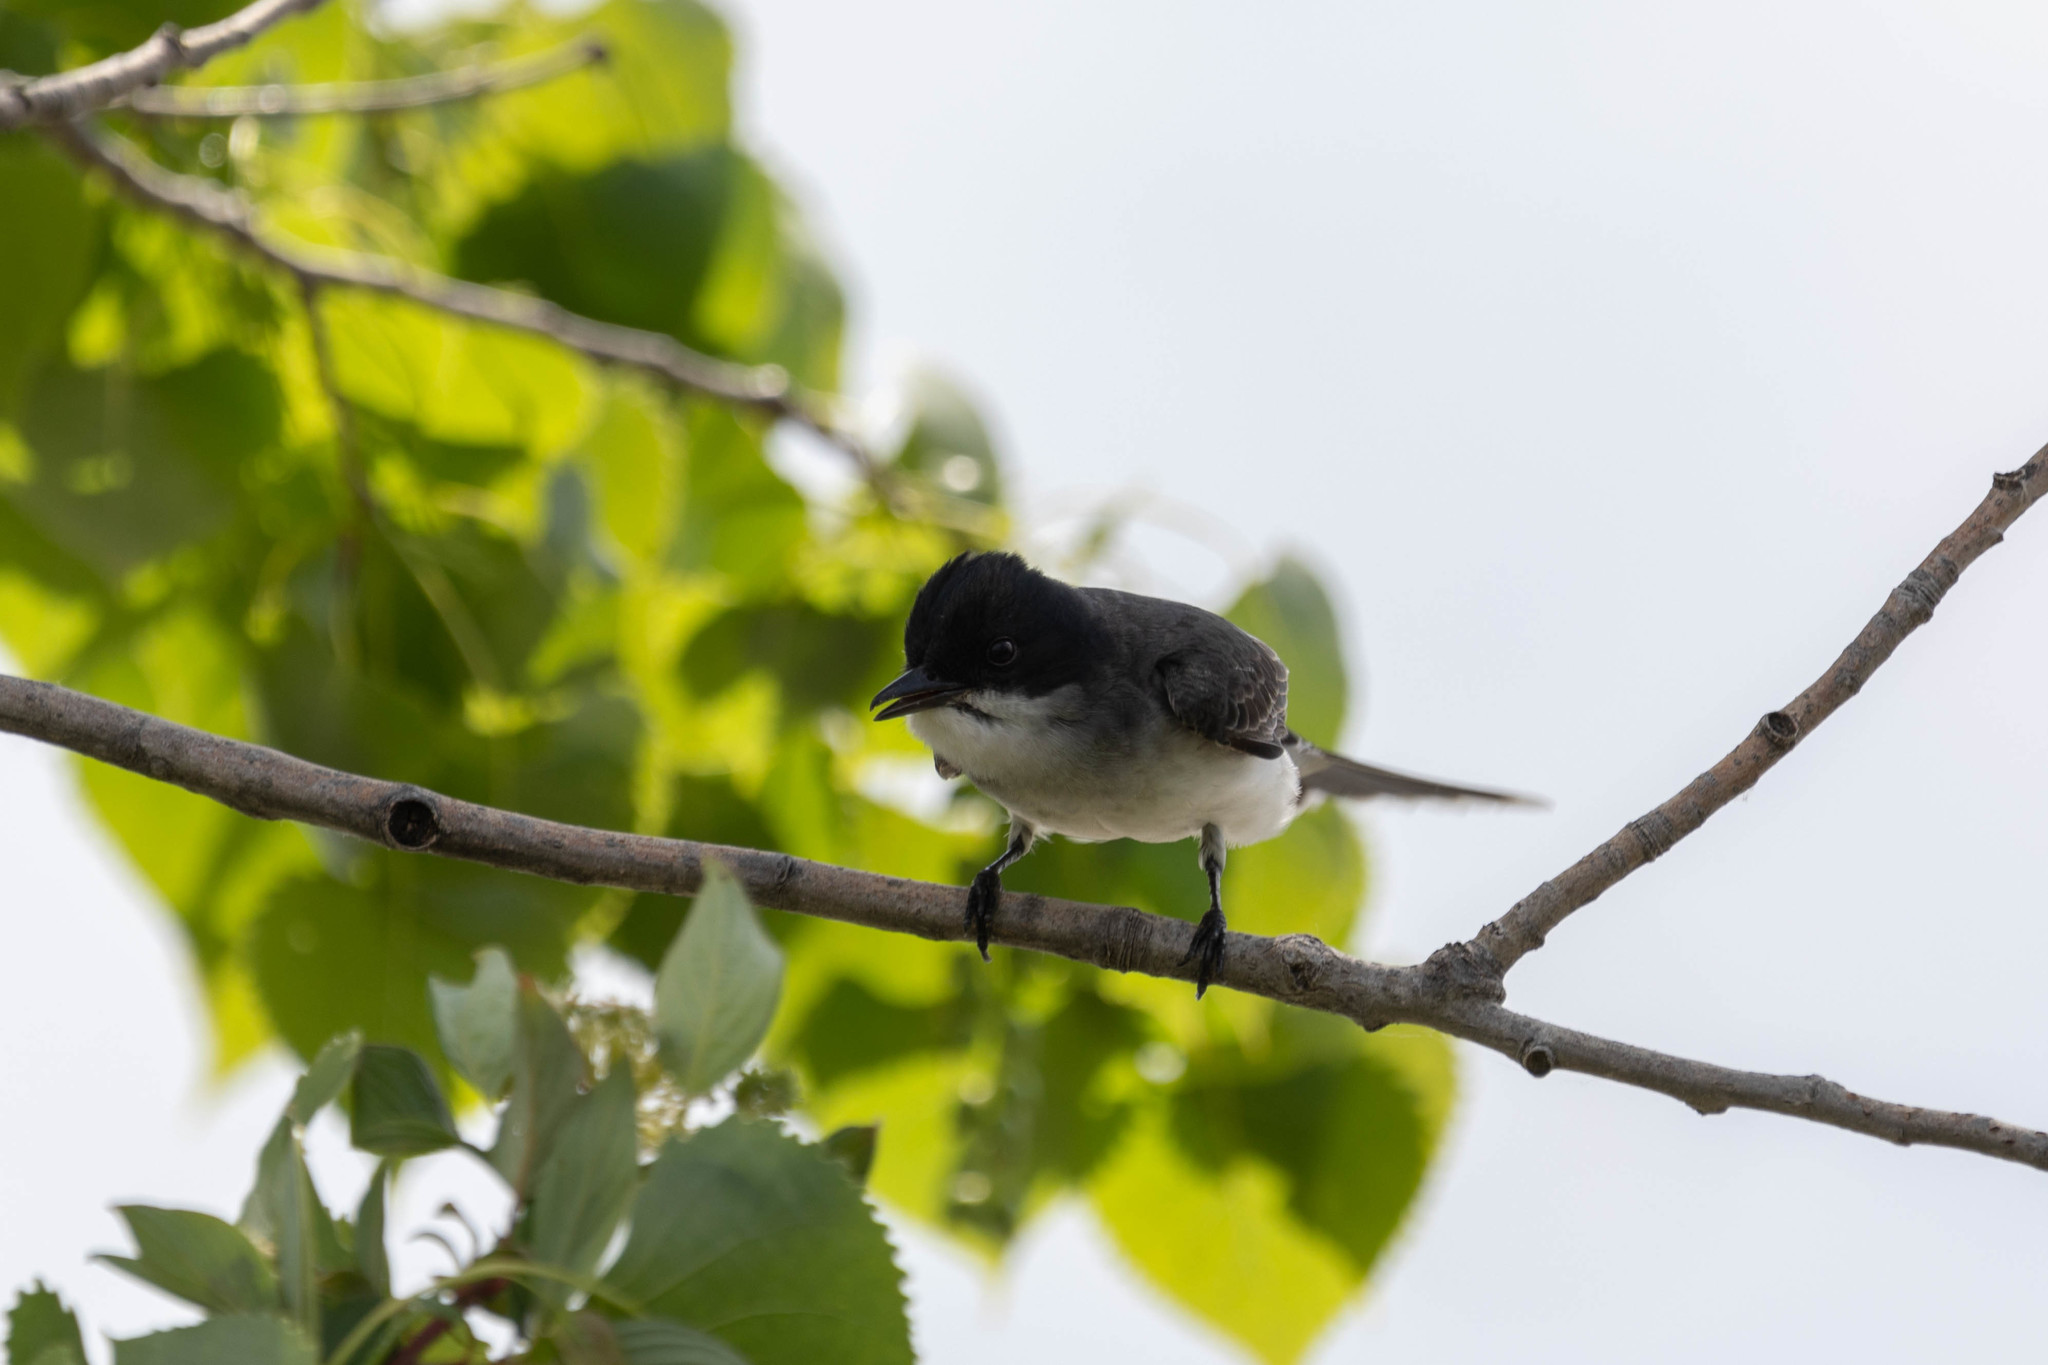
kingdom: Animalia
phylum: Chordata
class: Aves
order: Passeriformes
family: Tyrannidae
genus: Tyrannus
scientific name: Tyrannus tyrannus
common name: Eastern kingbird
